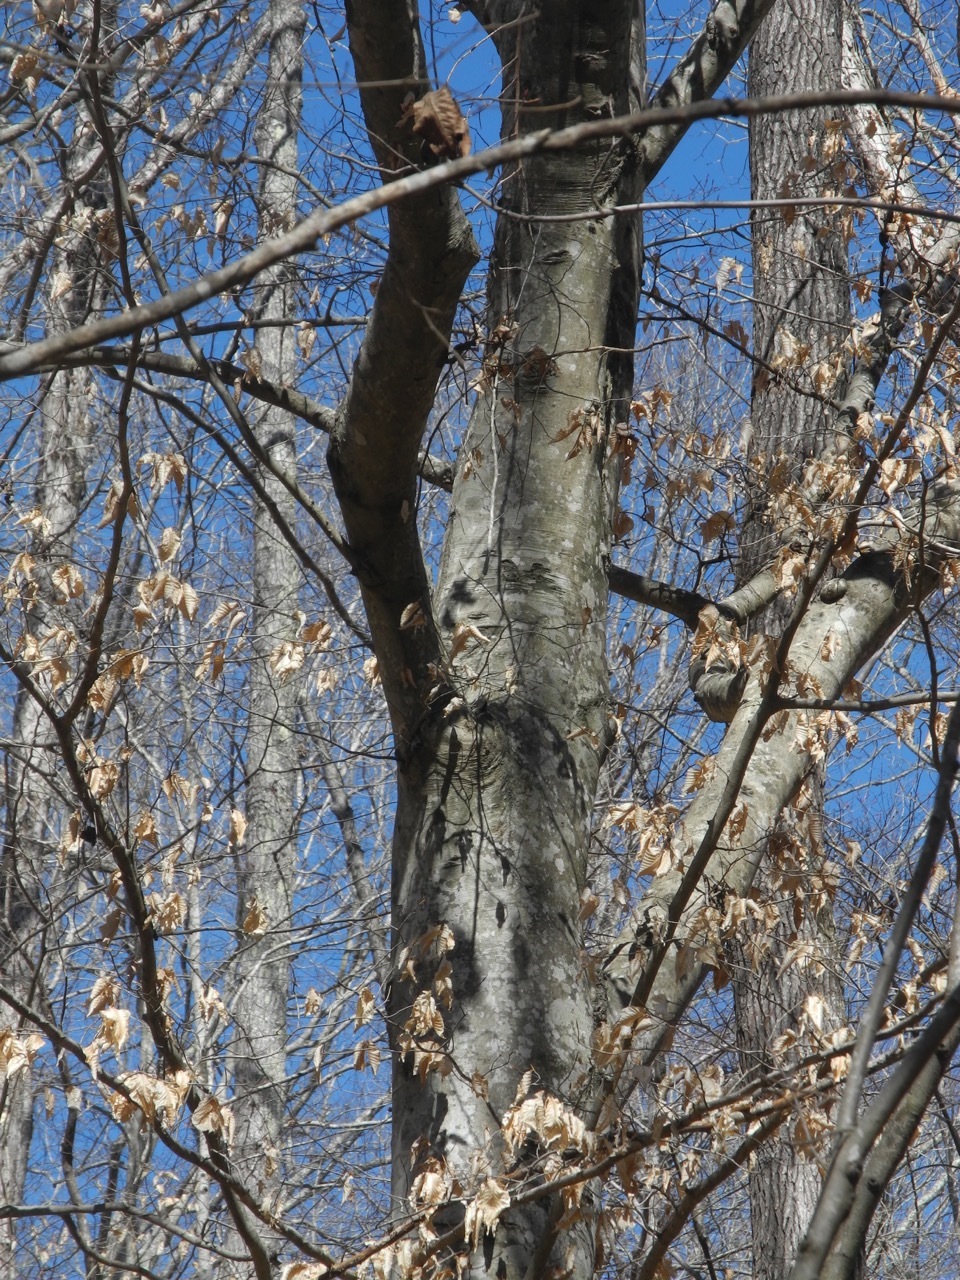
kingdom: Plantae
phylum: Tracheophyta
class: Magnoliopsida
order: Fagales
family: Fagaceae
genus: Fagus
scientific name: Fagus grandifolia
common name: American beech
